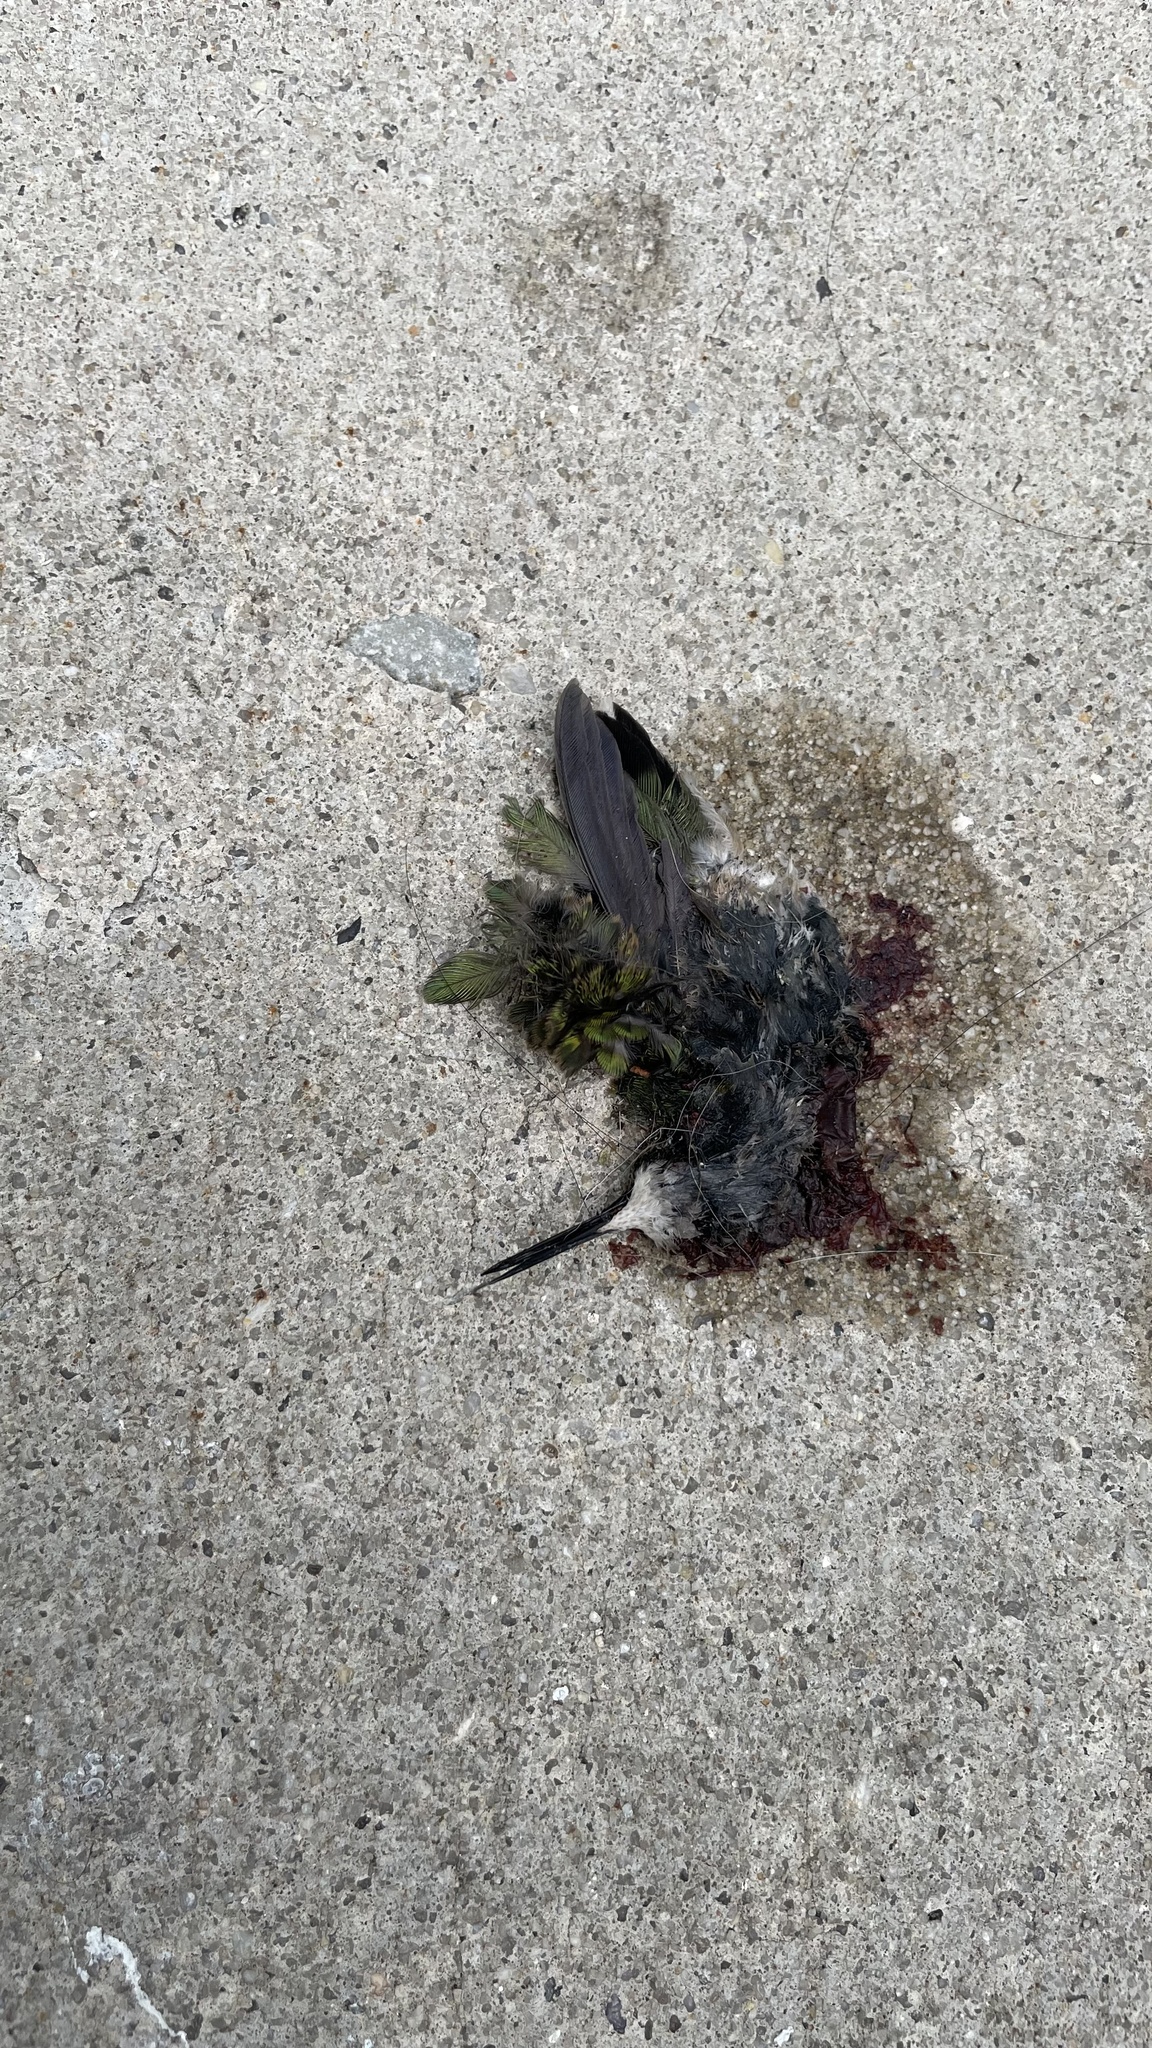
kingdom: Animalia
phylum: Chordata
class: Aves
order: Apodiformes
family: Trochilidae
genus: Archilochus
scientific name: Archilochus colubris
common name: Ruby-throated hummingbird
